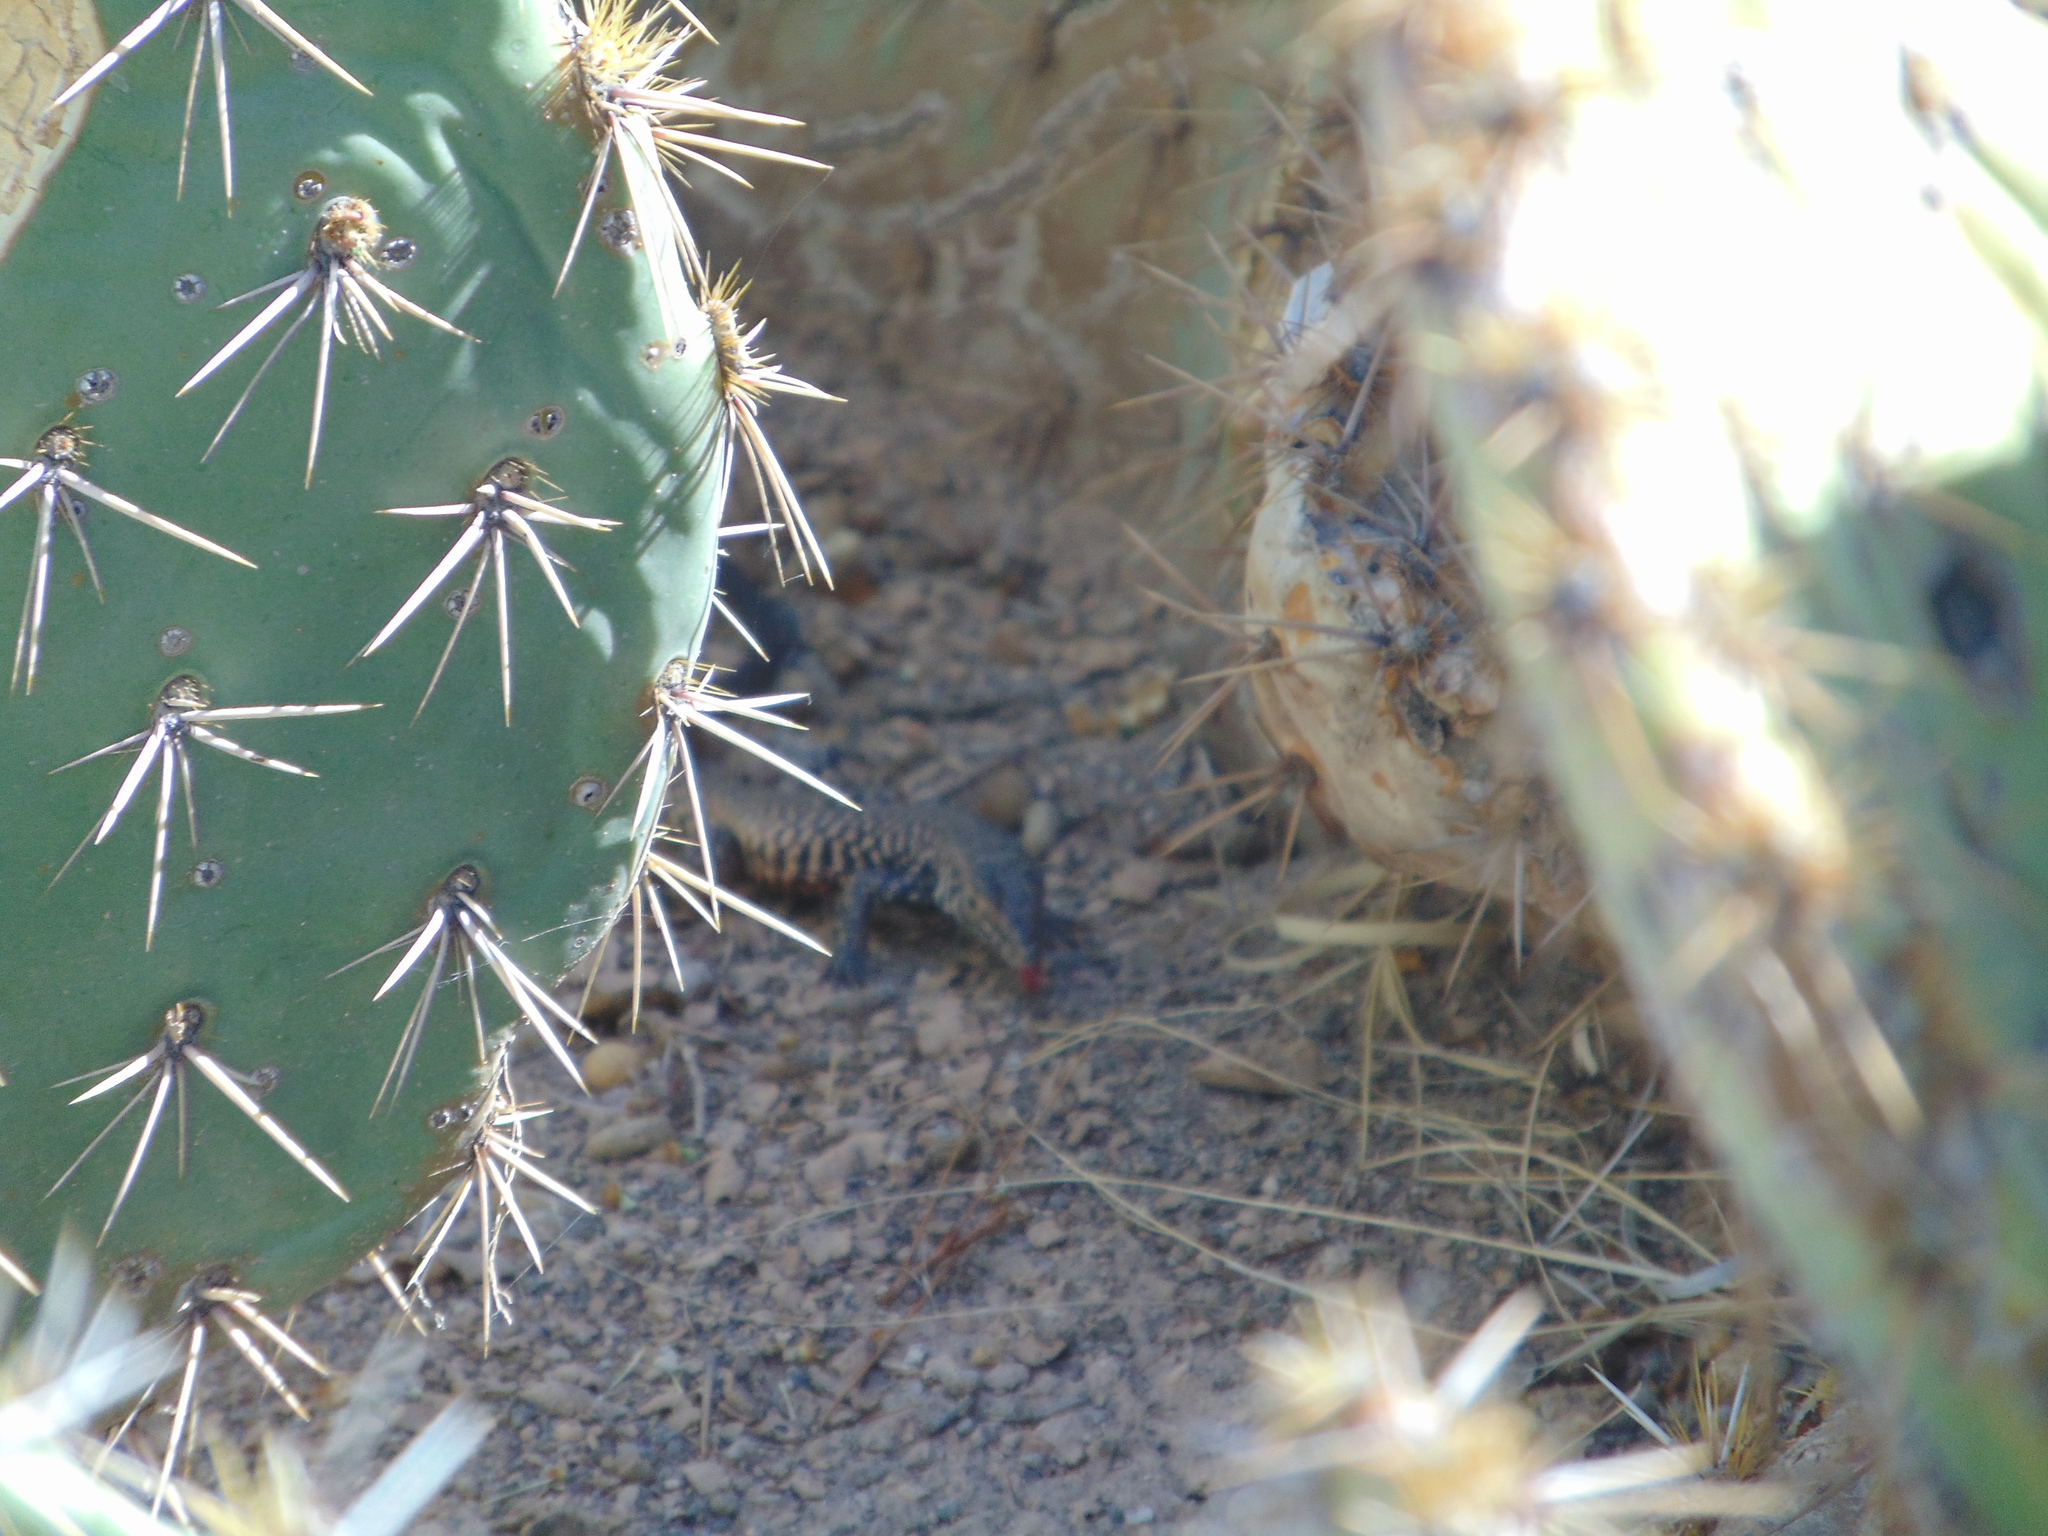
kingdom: Animalia
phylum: Chordata
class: Squamata
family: Teiidae
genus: Aspidoscelis
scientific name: Aspidoscelis marmoratus
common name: Eastern marbled whiptail [reticuloriens]
